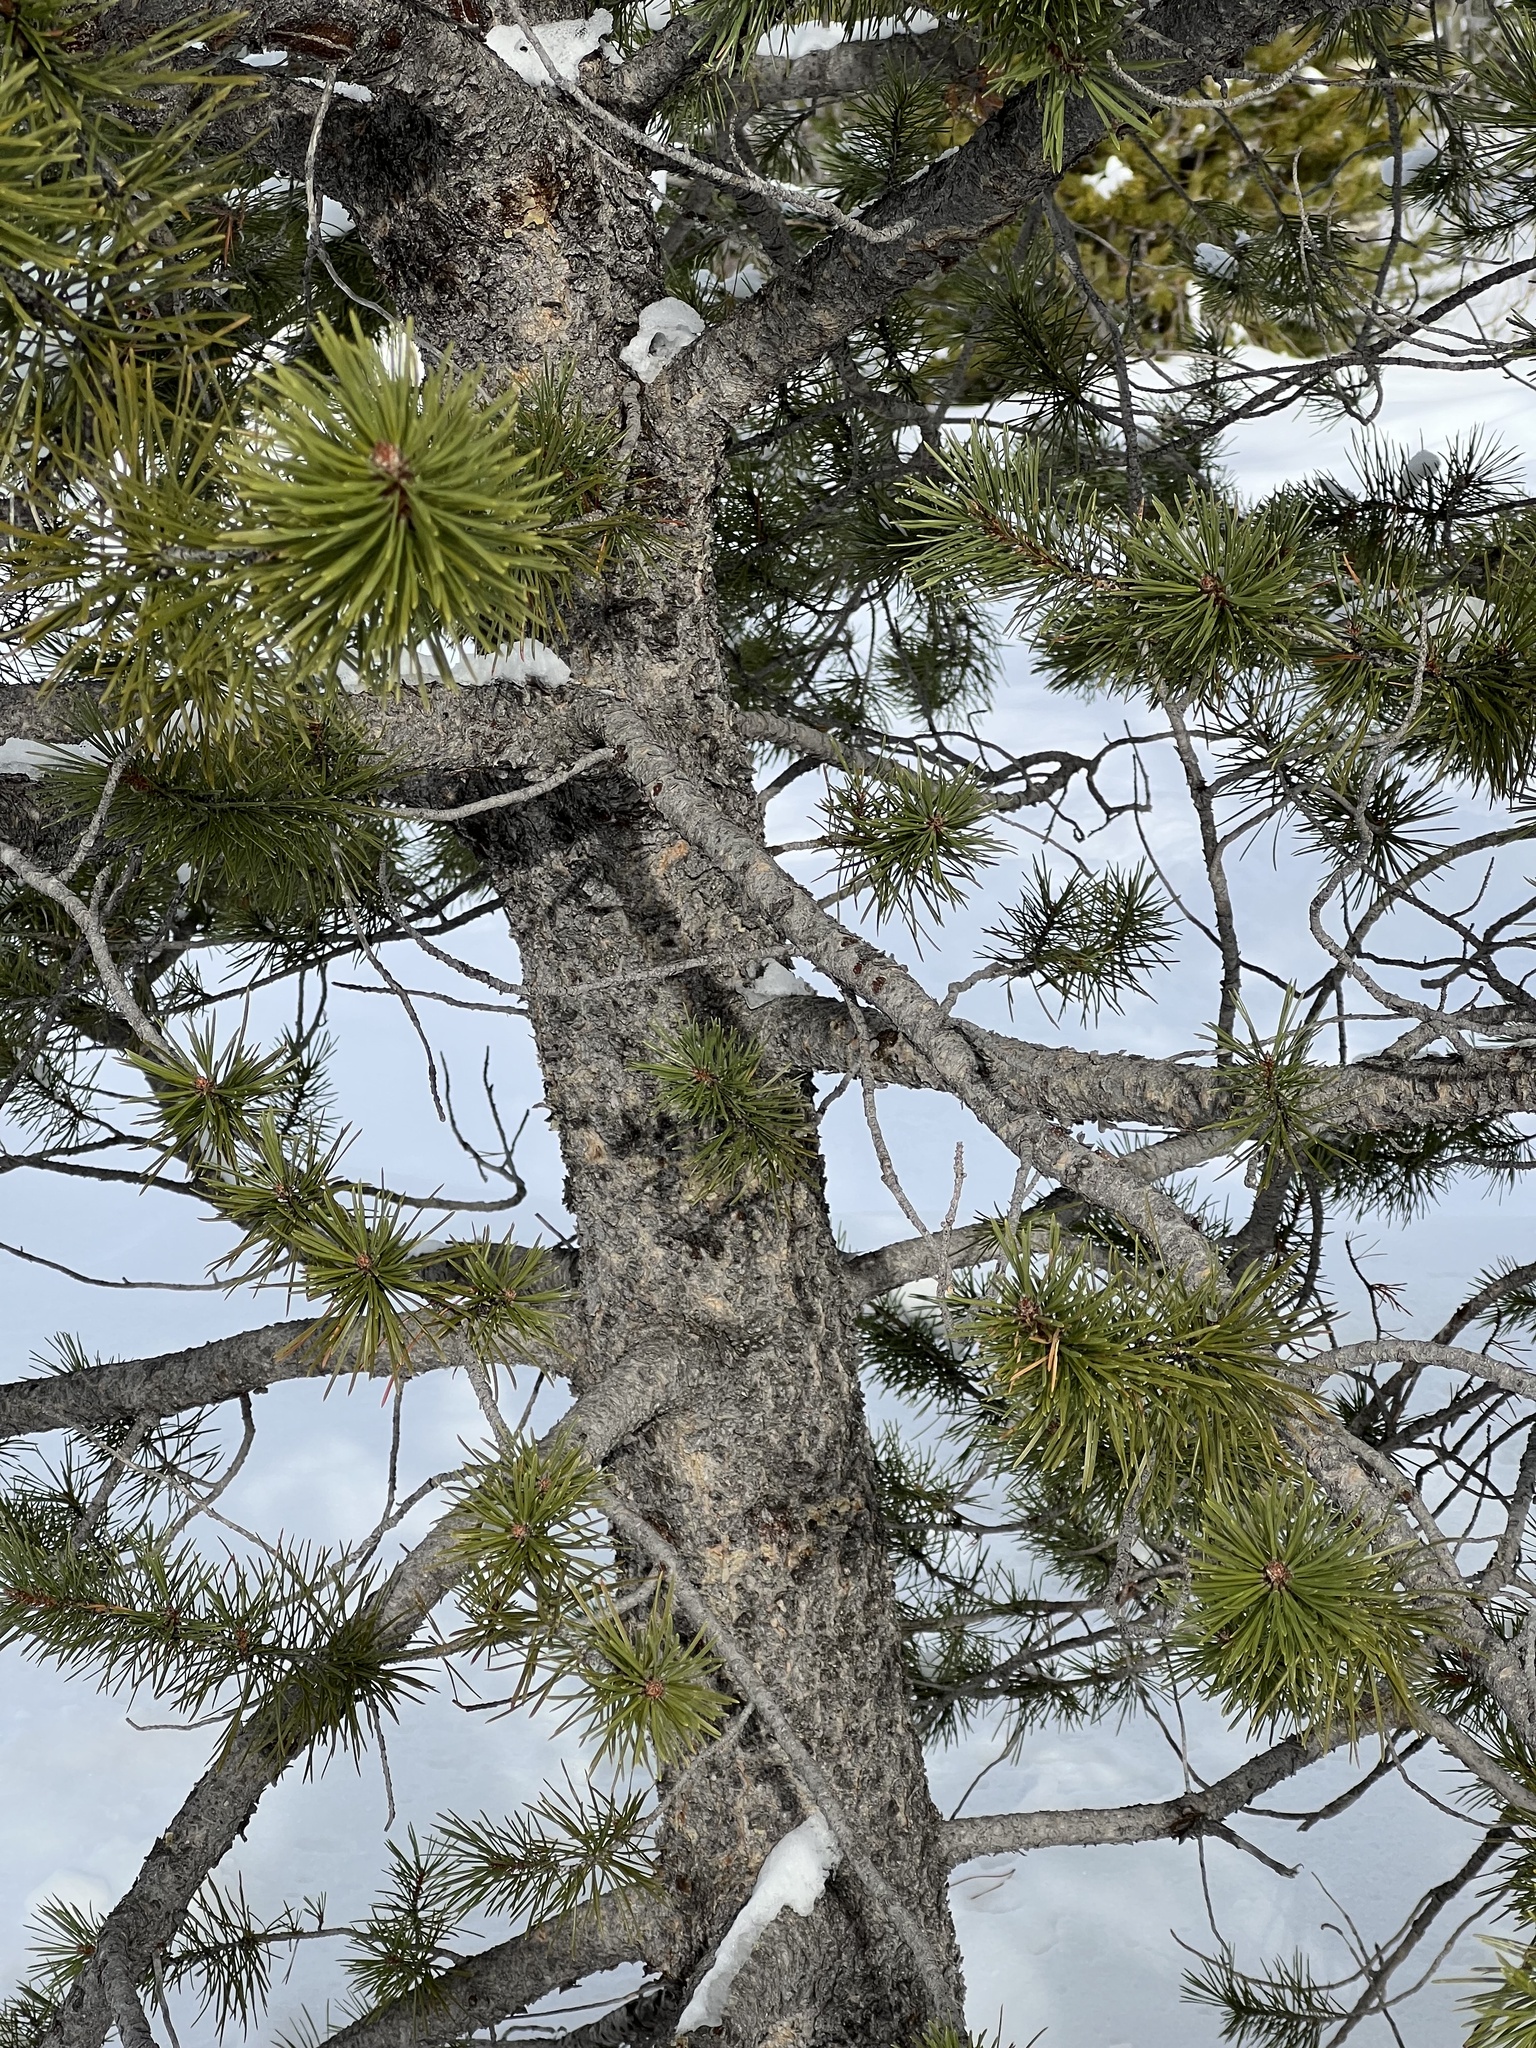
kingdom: Plantae
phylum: Tracheophyta
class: Pinopsida
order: Pinales
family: Pinaceae
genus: Pinus
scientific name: Pinus contorta
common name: Lodgepole pine
